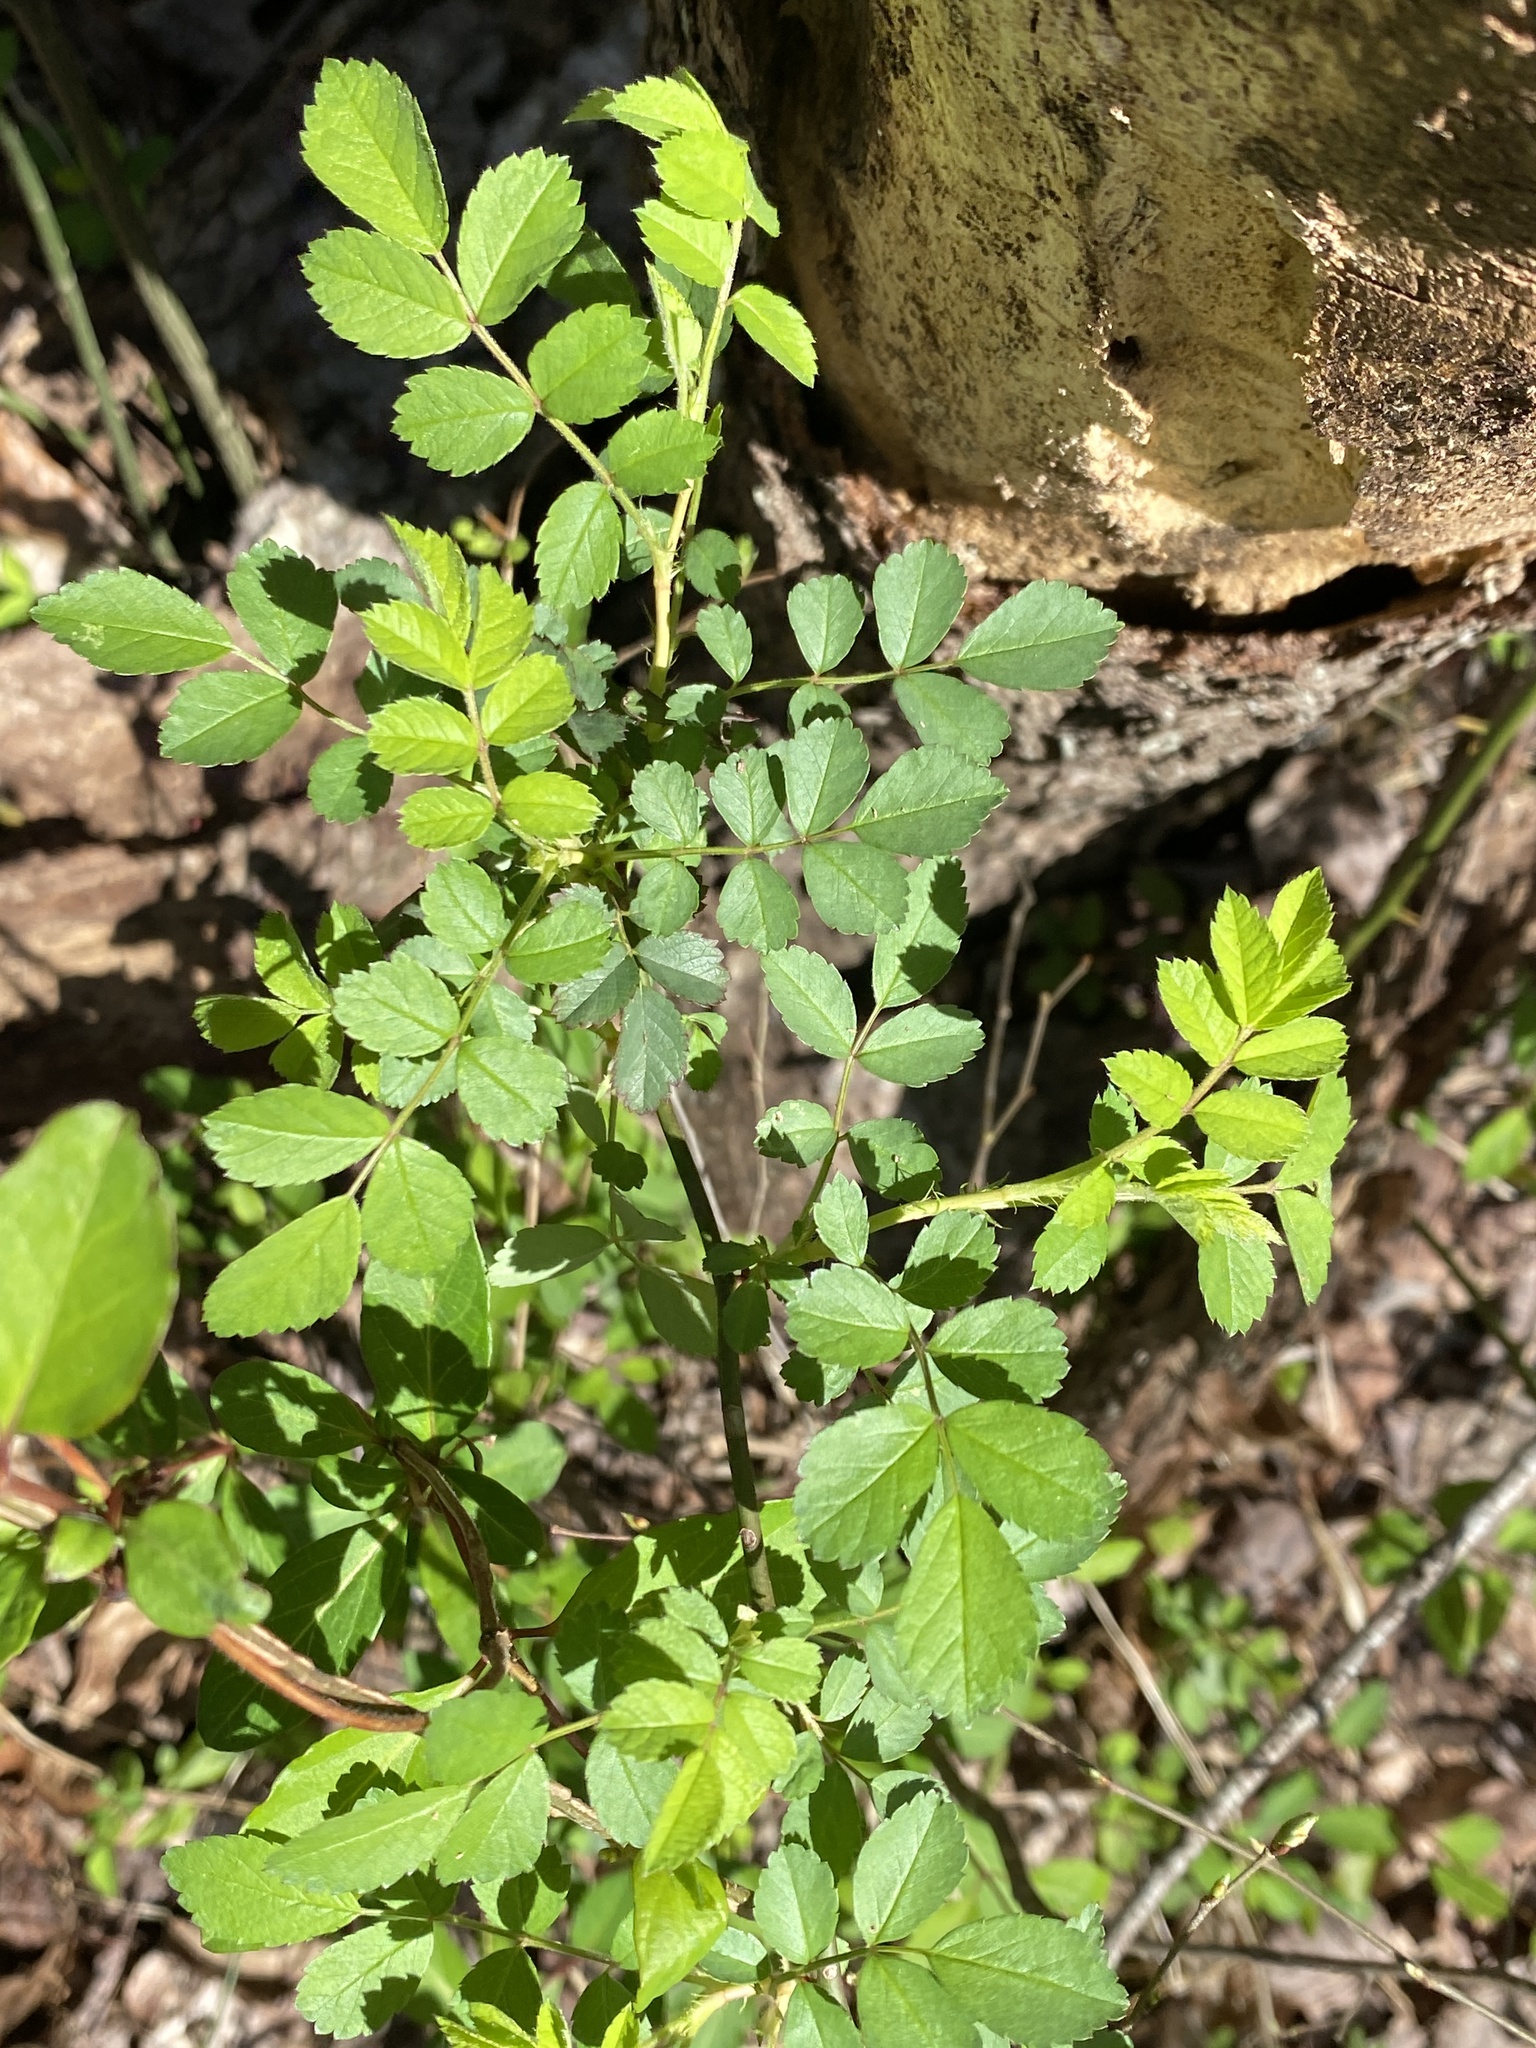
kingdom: Plantae
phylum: Tracheophyta
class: Magnoliopsida
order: Rosales
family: Rosaceae
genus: Rosa
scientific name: Rosa multiflora
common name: Multiflora rose
